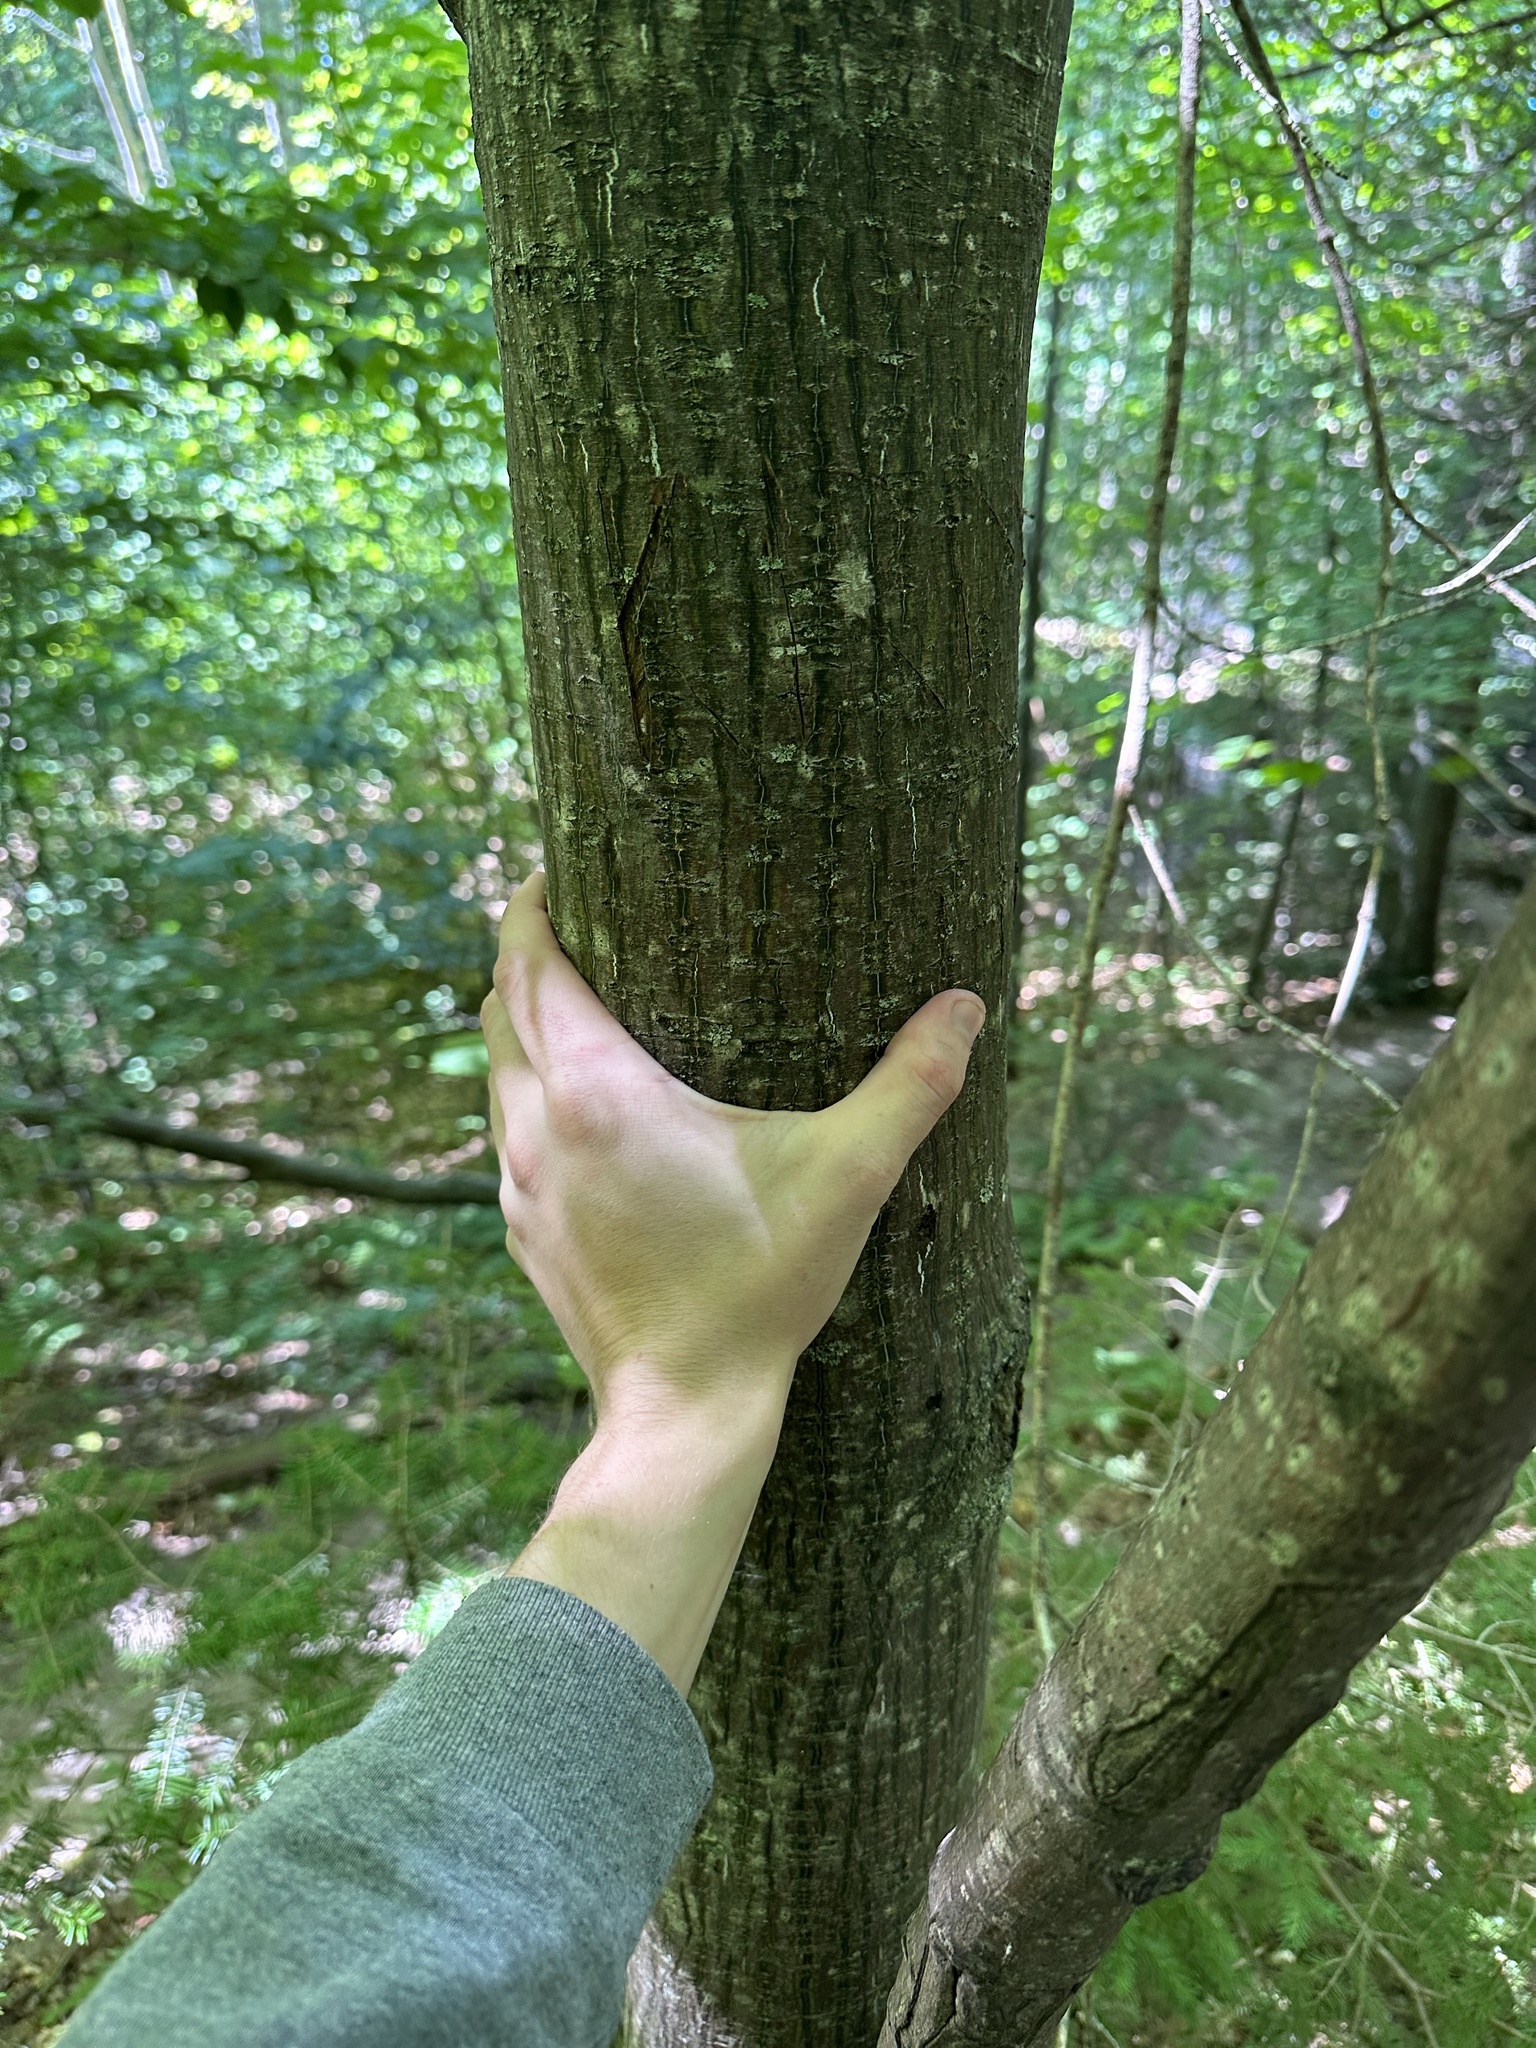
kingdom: Plantae
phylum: Tracheophyta
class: Magnoliopsida
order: Sapindales
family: Sapindaceae
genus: Acer
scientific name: Acer pensylvanicum
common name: Moosewood
